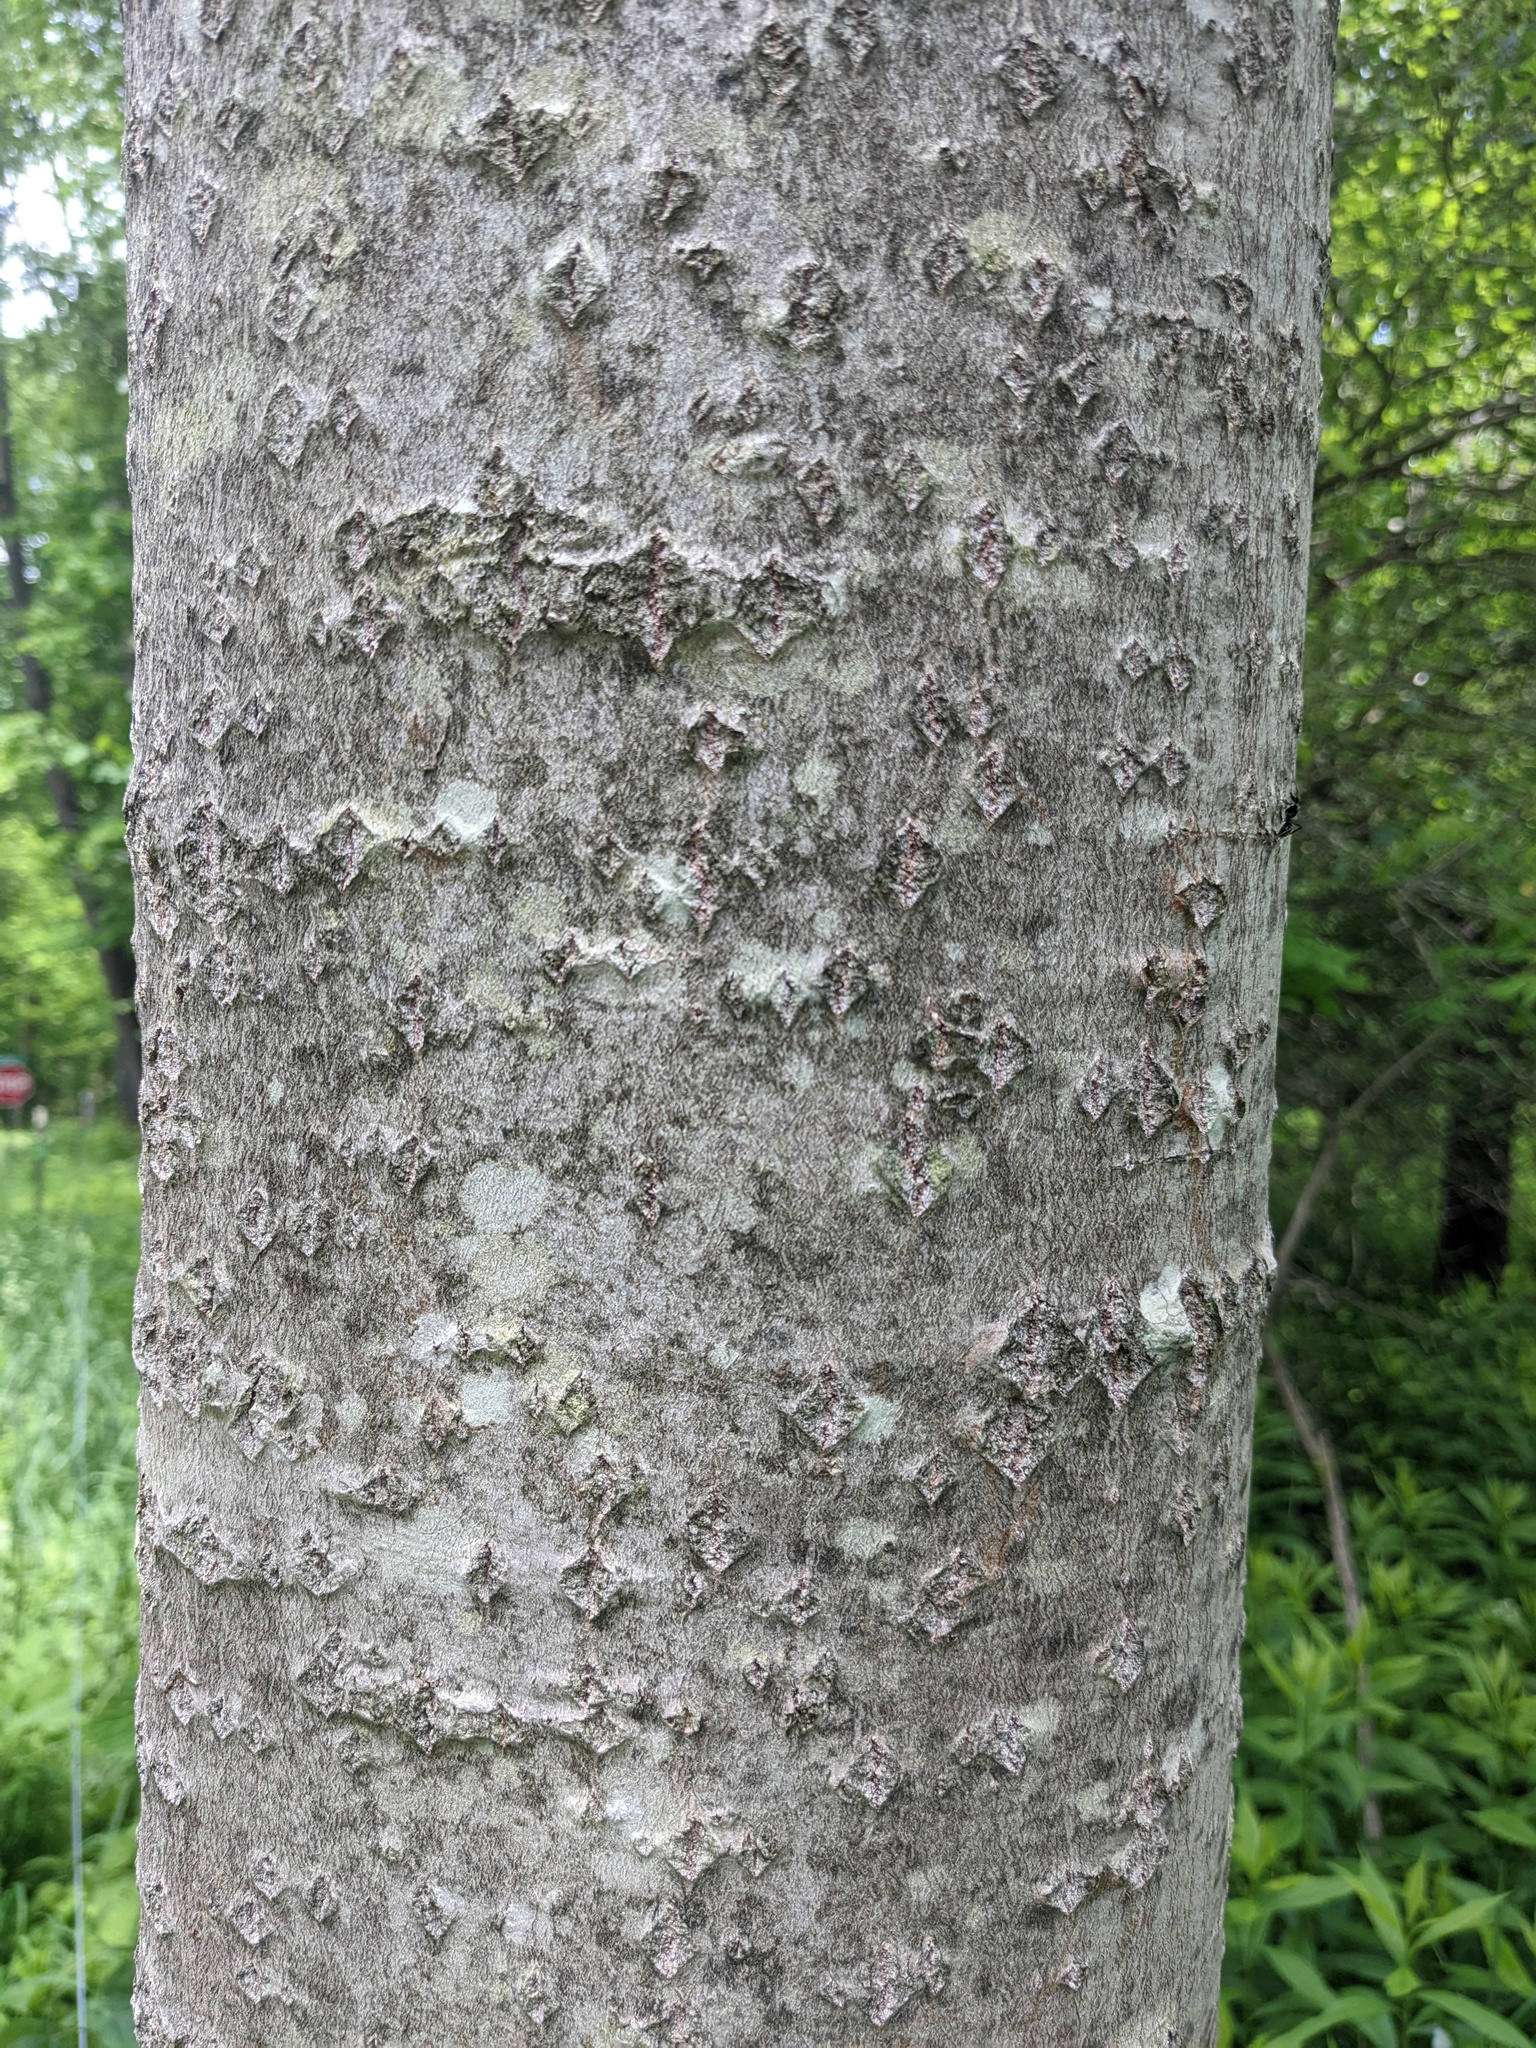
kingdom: Plantae
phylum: Tracheophyta
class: Magnoliopsida
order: Malpighiales
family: Salicaceae
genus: Populus
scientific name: Populus grandidentata
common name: Bigtooth aspen
